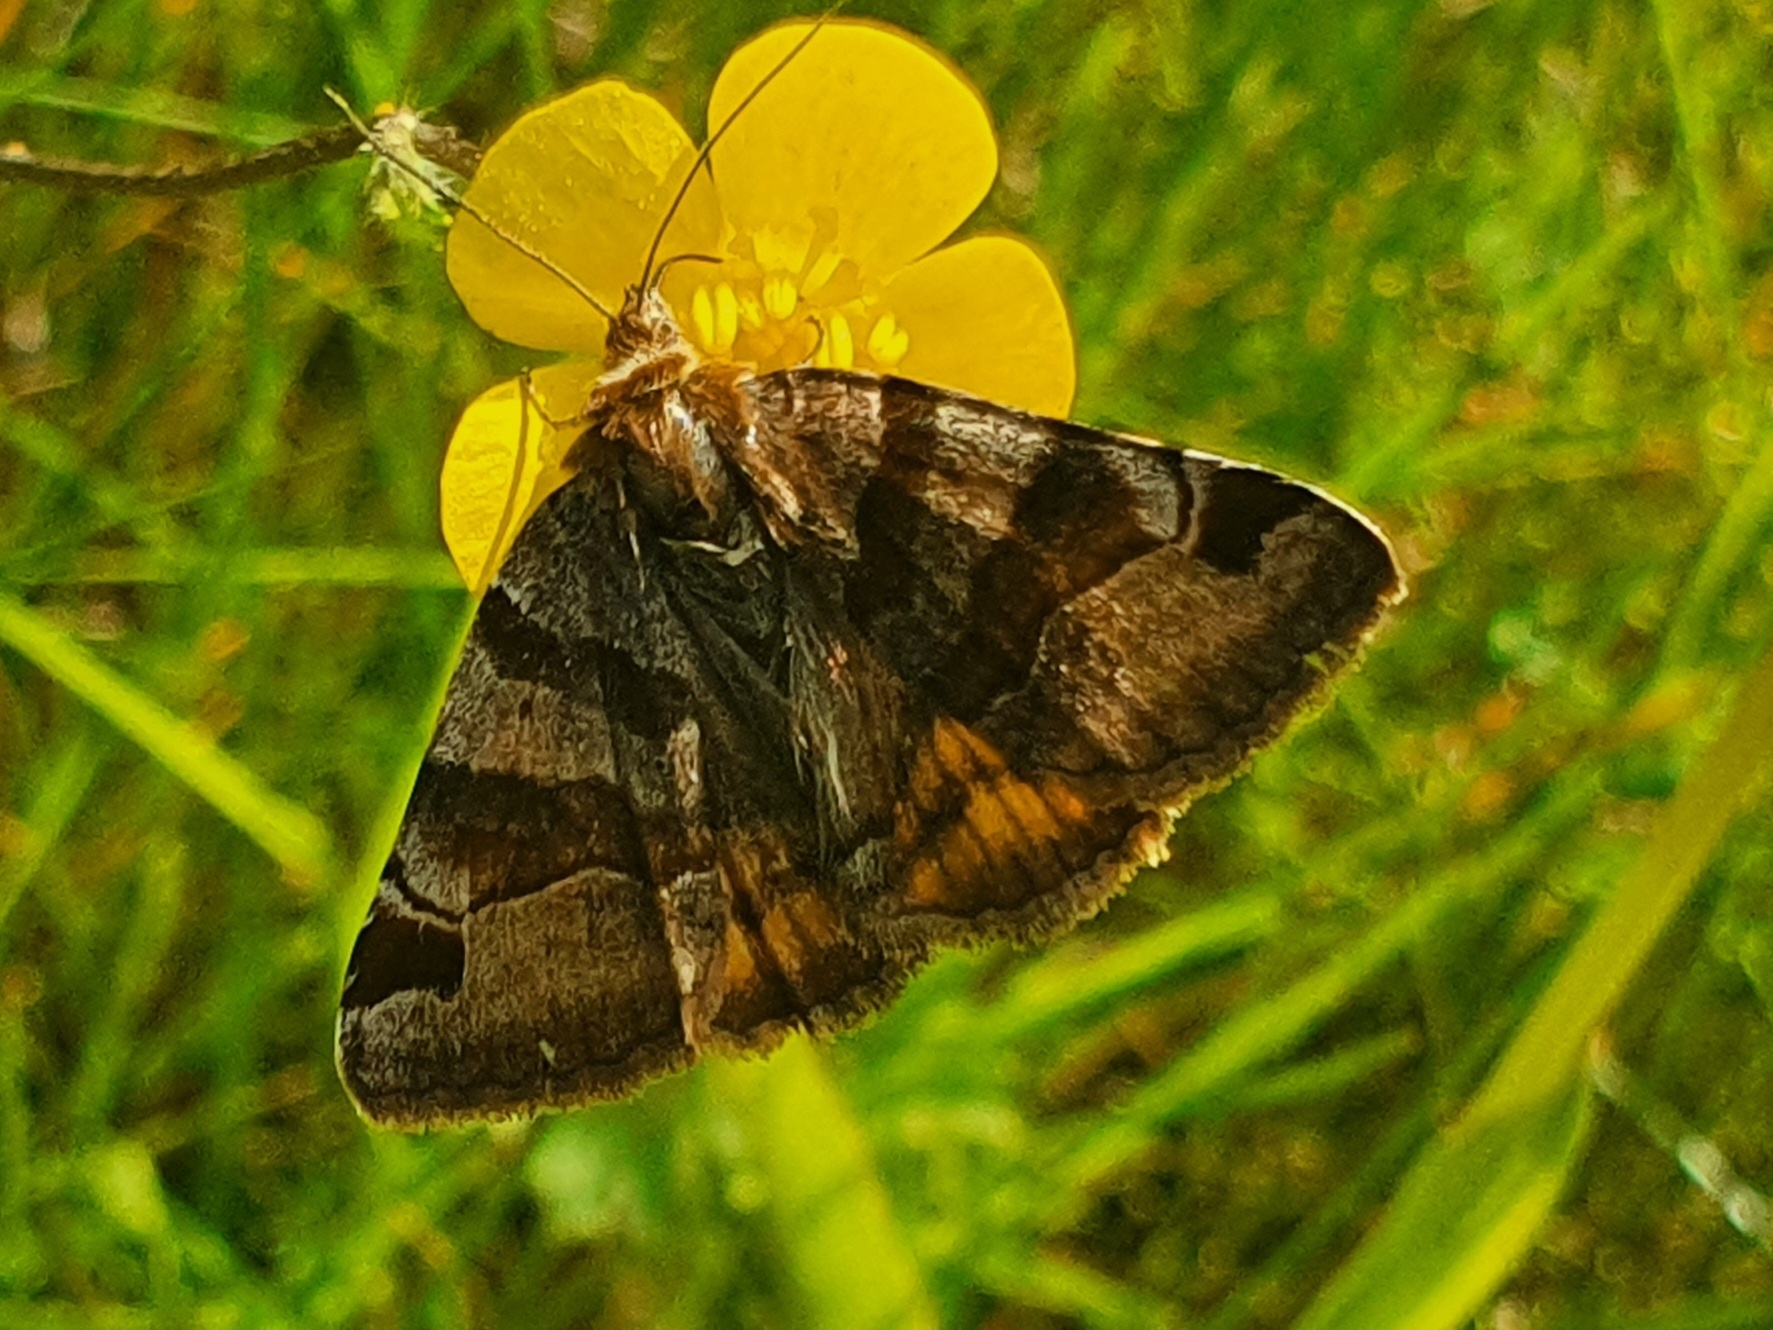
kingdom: Animalia
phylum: Arthropoda
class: Insecta
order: Lepidoptera
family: Erebidae
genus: Euclidia
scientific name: Euclidia glyphica
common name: Burnet companion
